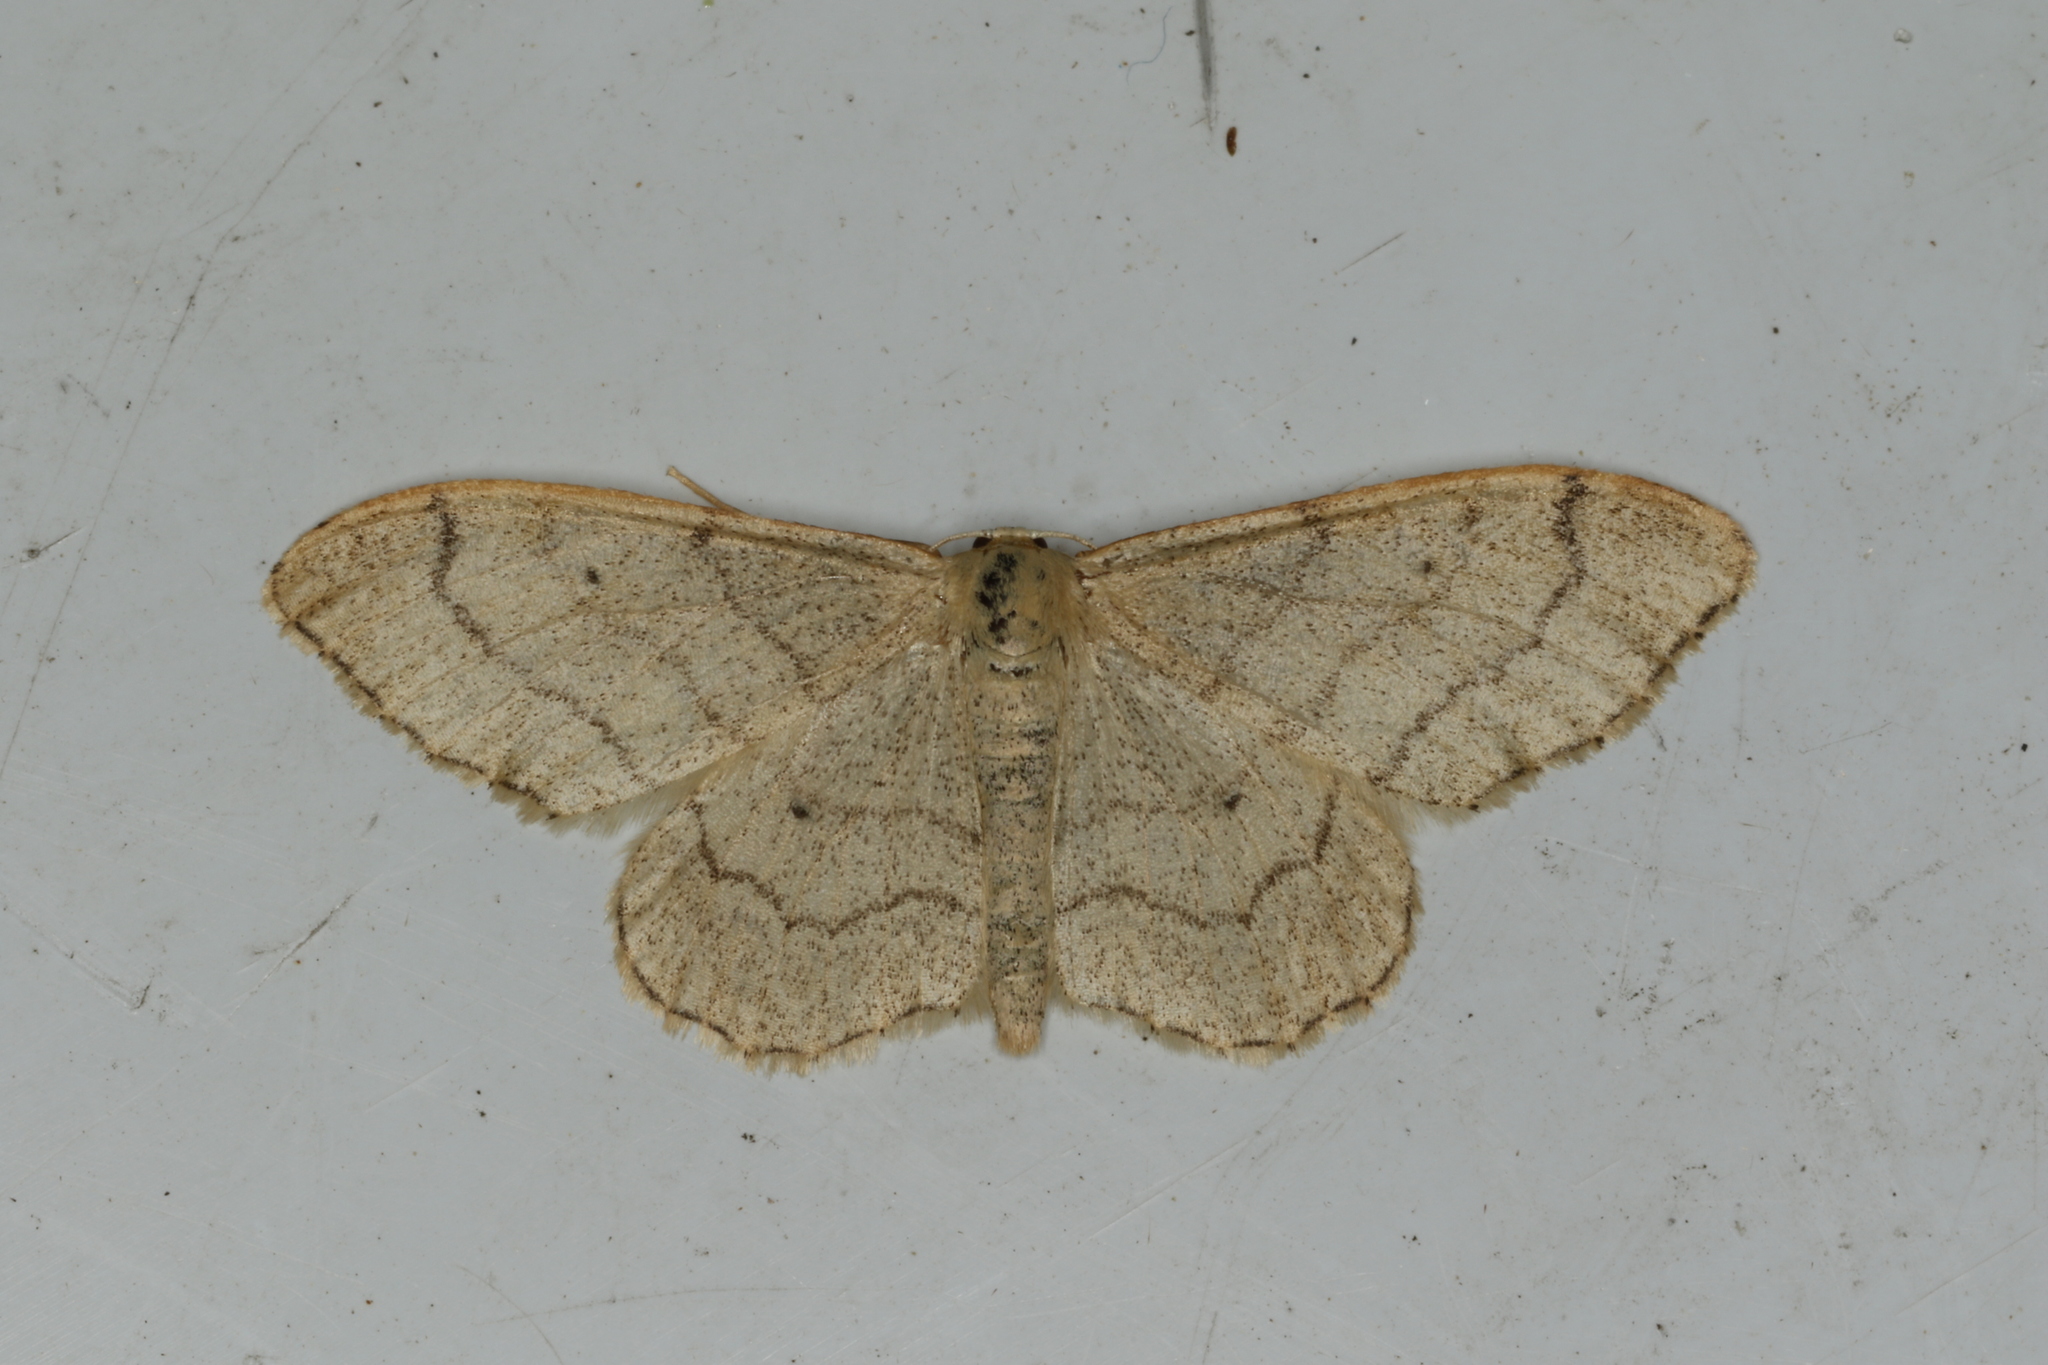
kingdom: Animalia
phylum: Arthropoda
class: Insecta
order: Lepidoptera
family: Geometridae
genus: Idaea
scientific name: Idaea aversata
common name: Riband wave
